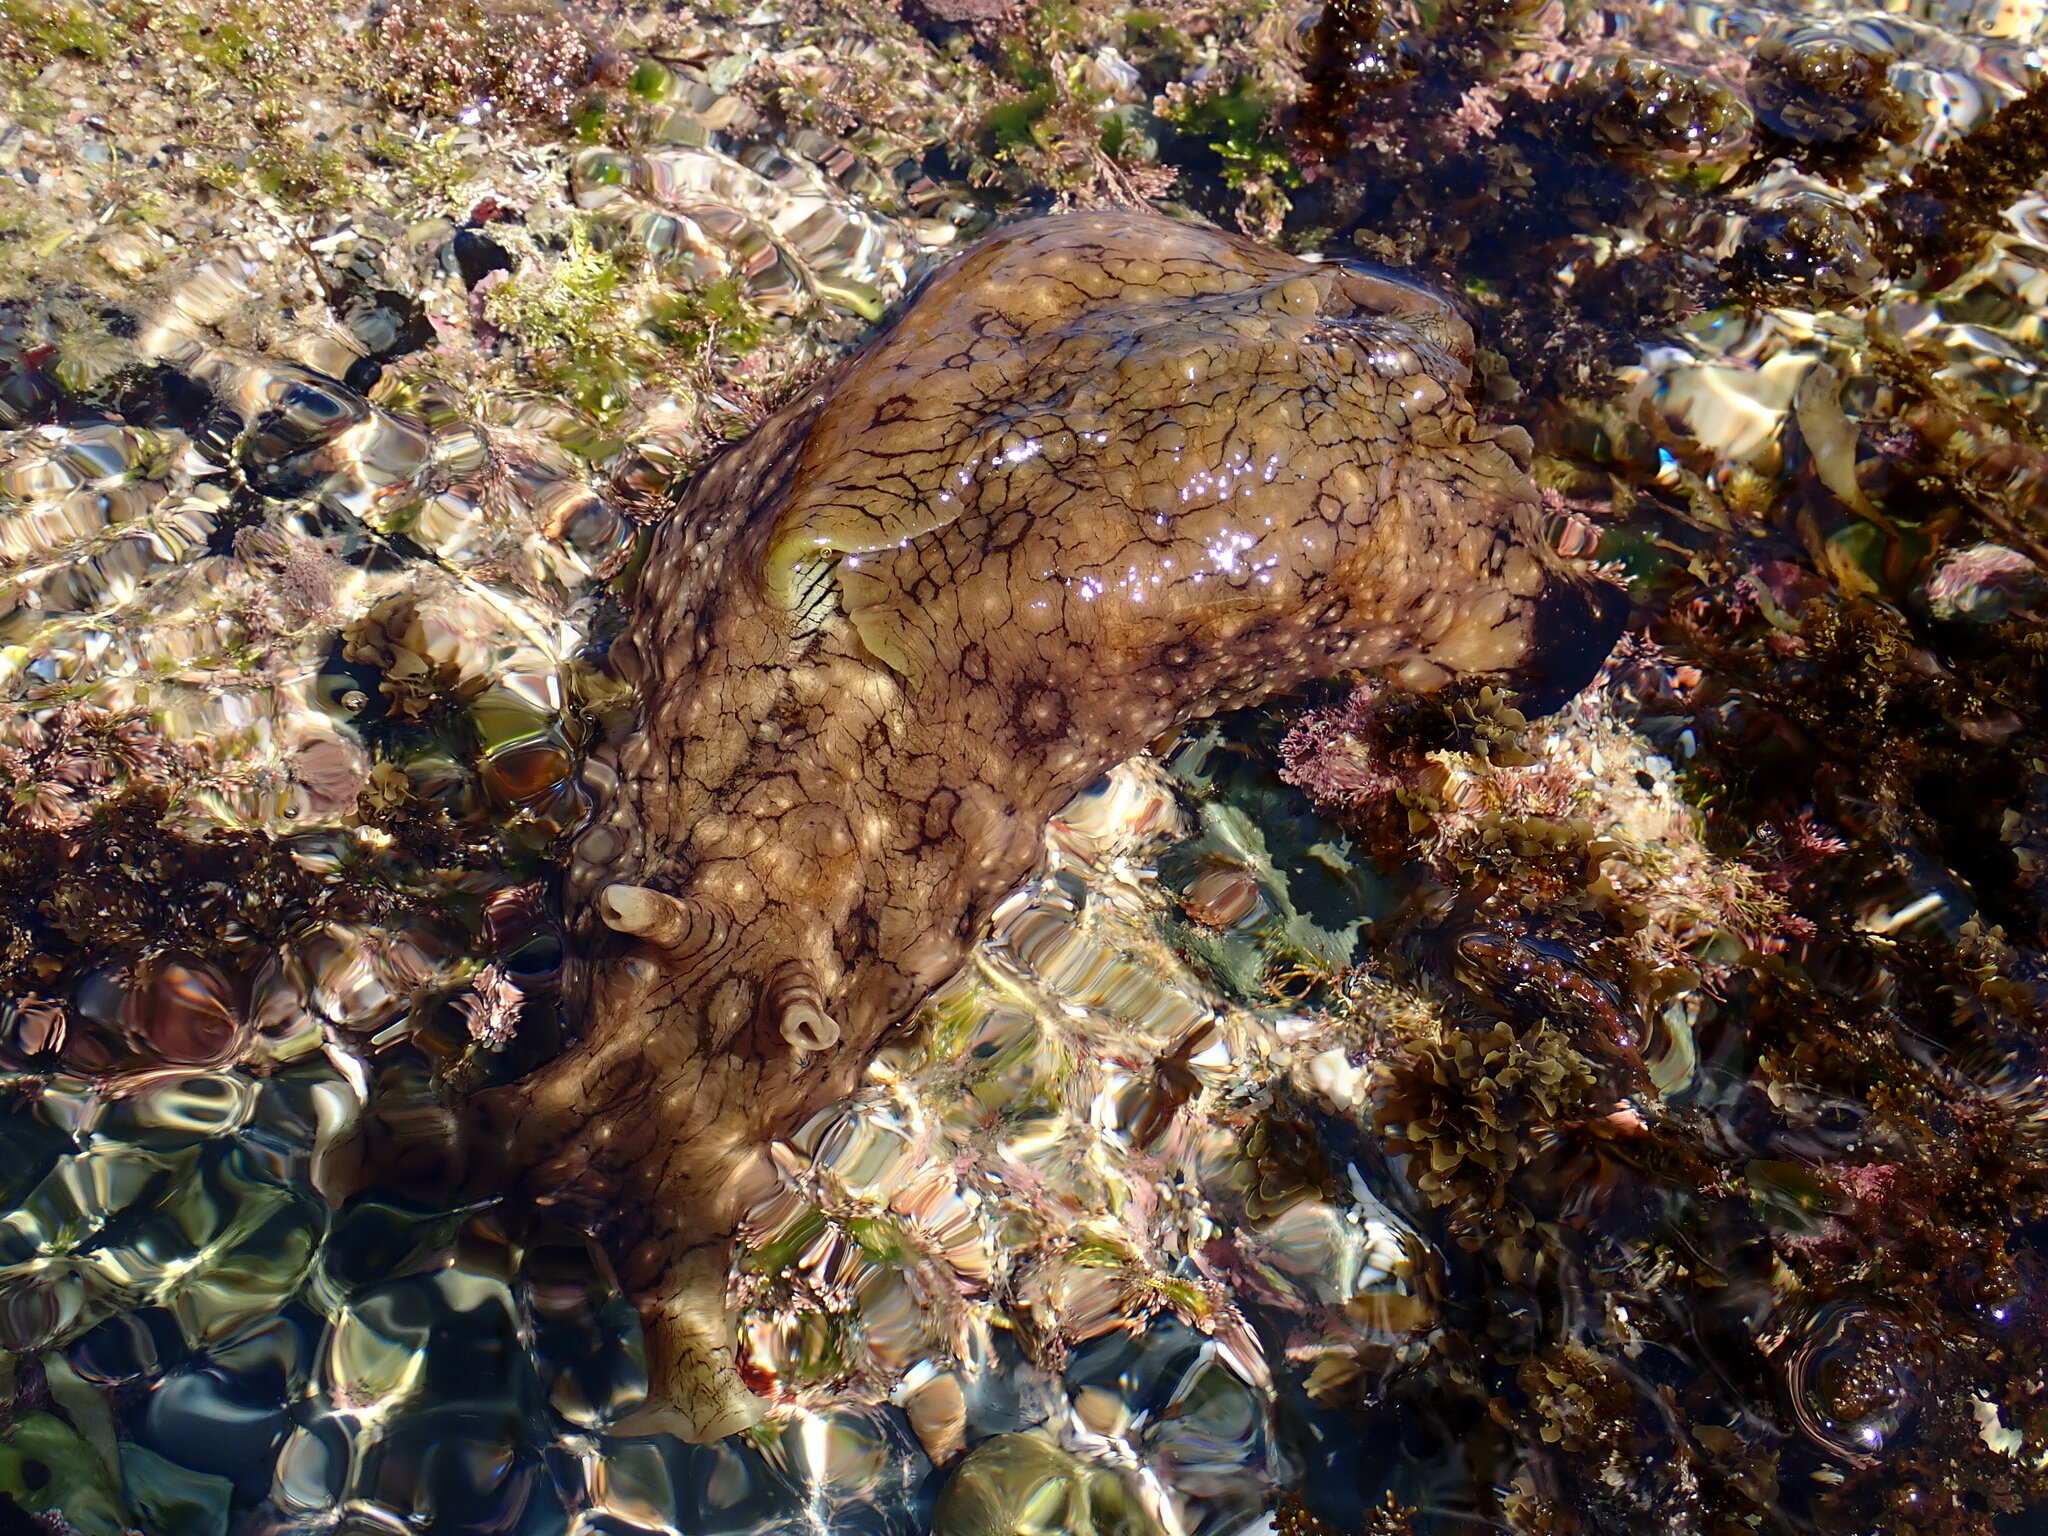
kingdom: Animalia
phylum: Mollusca
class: Gastropoda
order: Aplysiida
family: Aplysiidae
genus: Aplysia
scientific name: Aplysia argus
